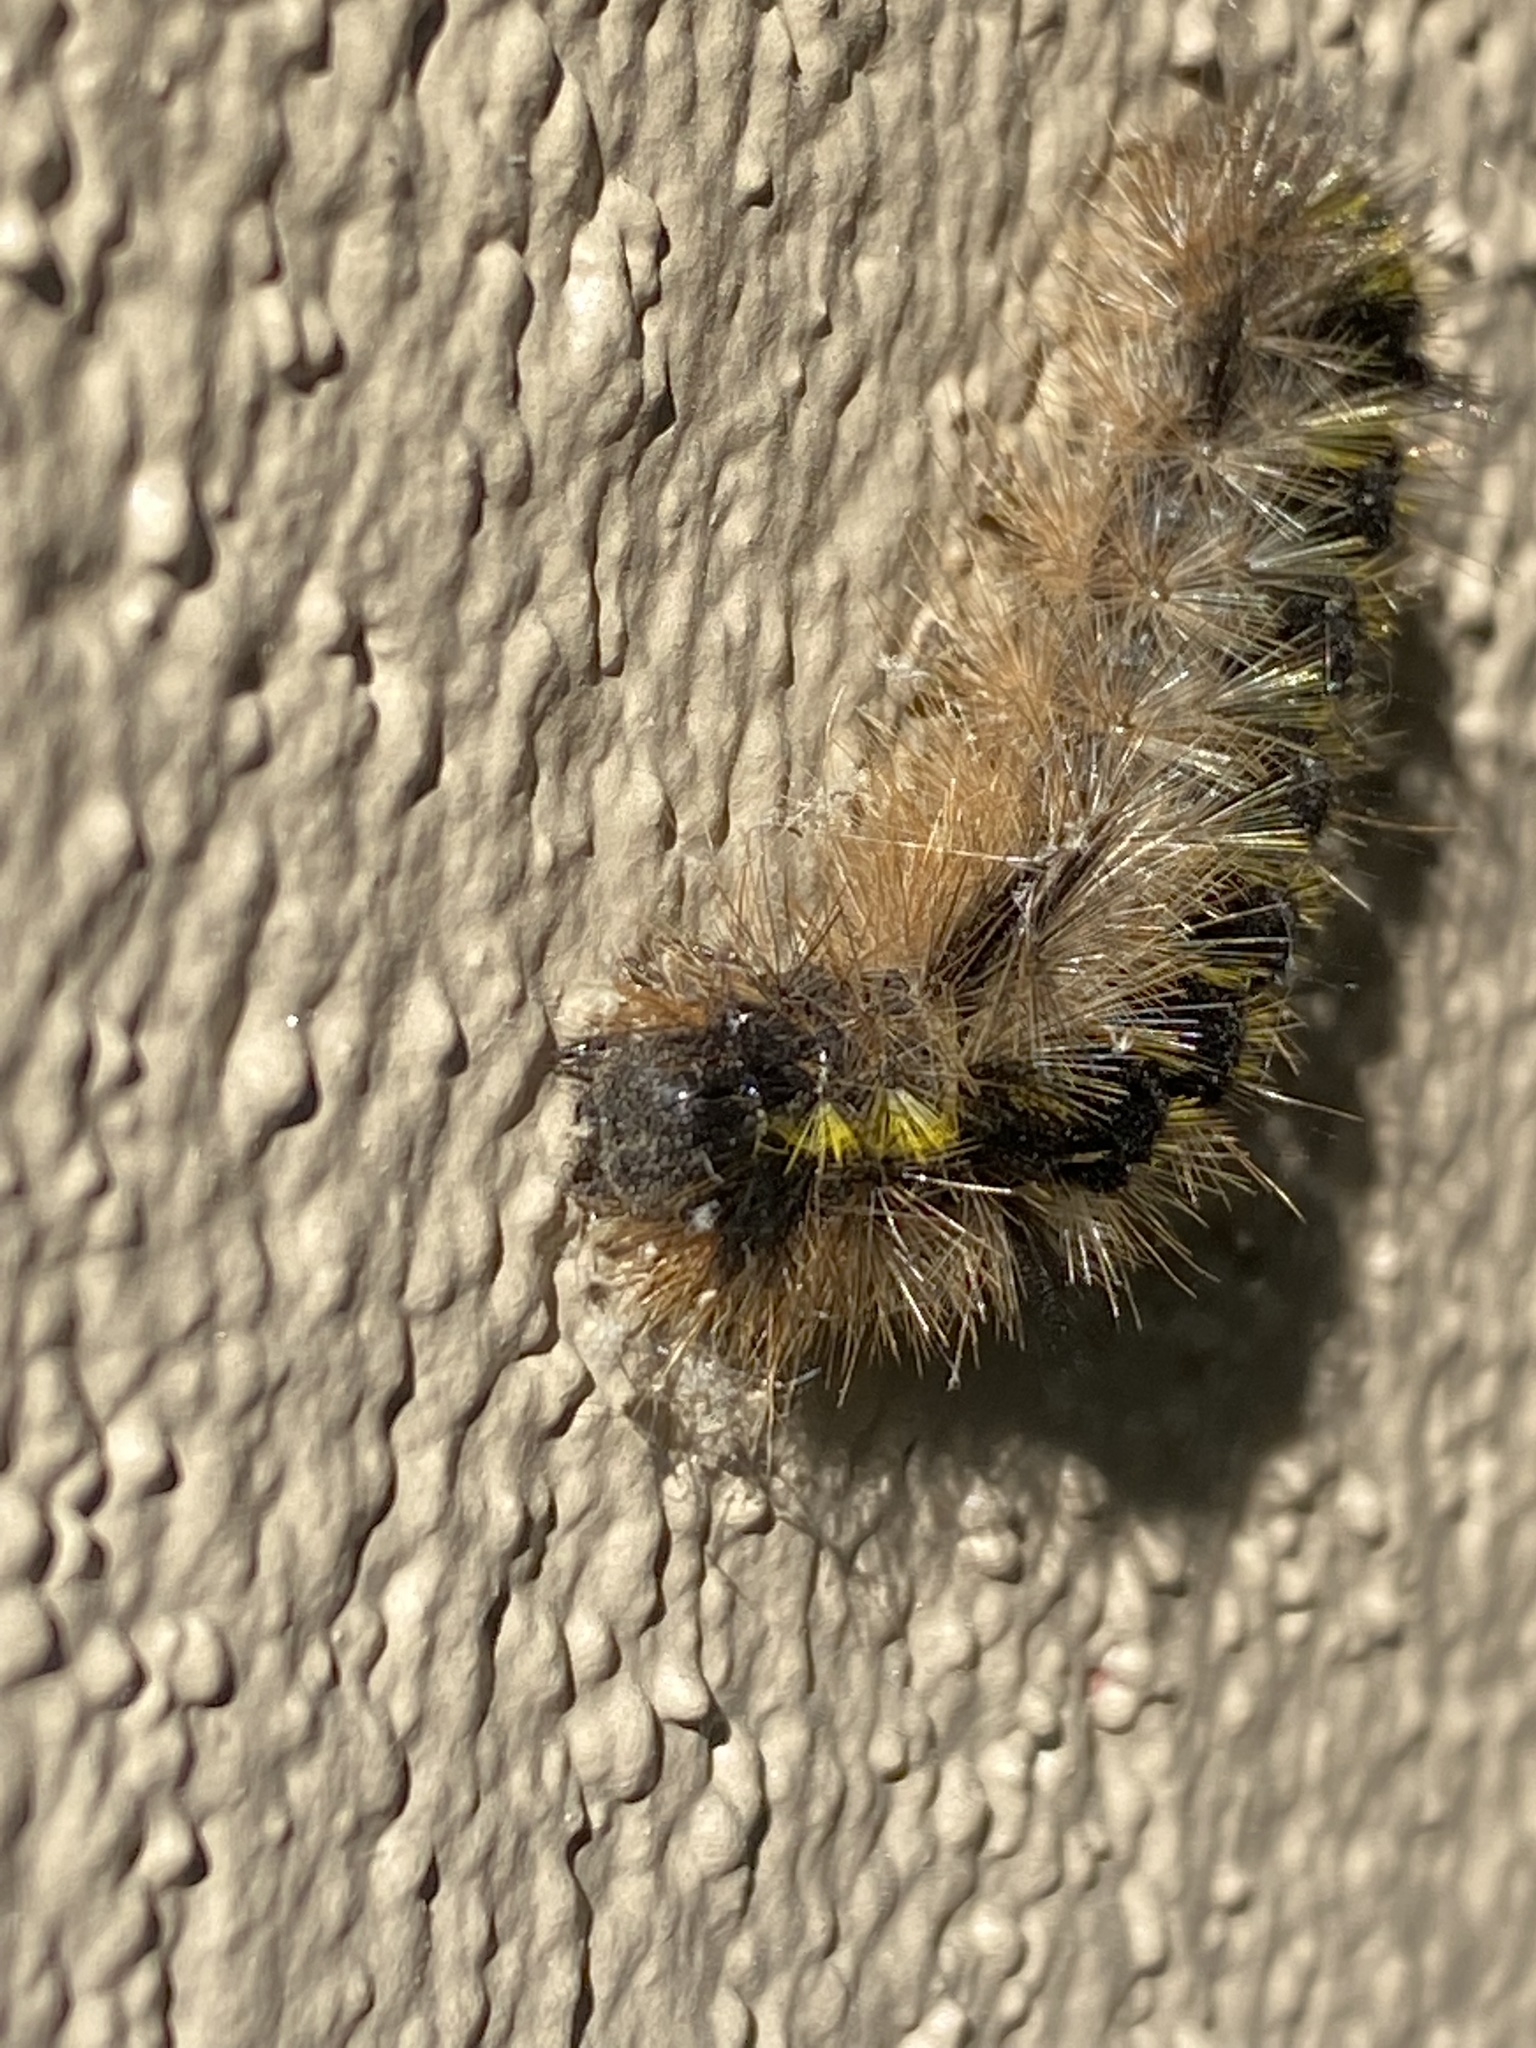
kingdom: Animalia
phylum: Arthropoda
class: Insecta
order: Lepidoptera
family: Erebidae
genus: Lophocampa
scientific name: Lophocampa argentata
